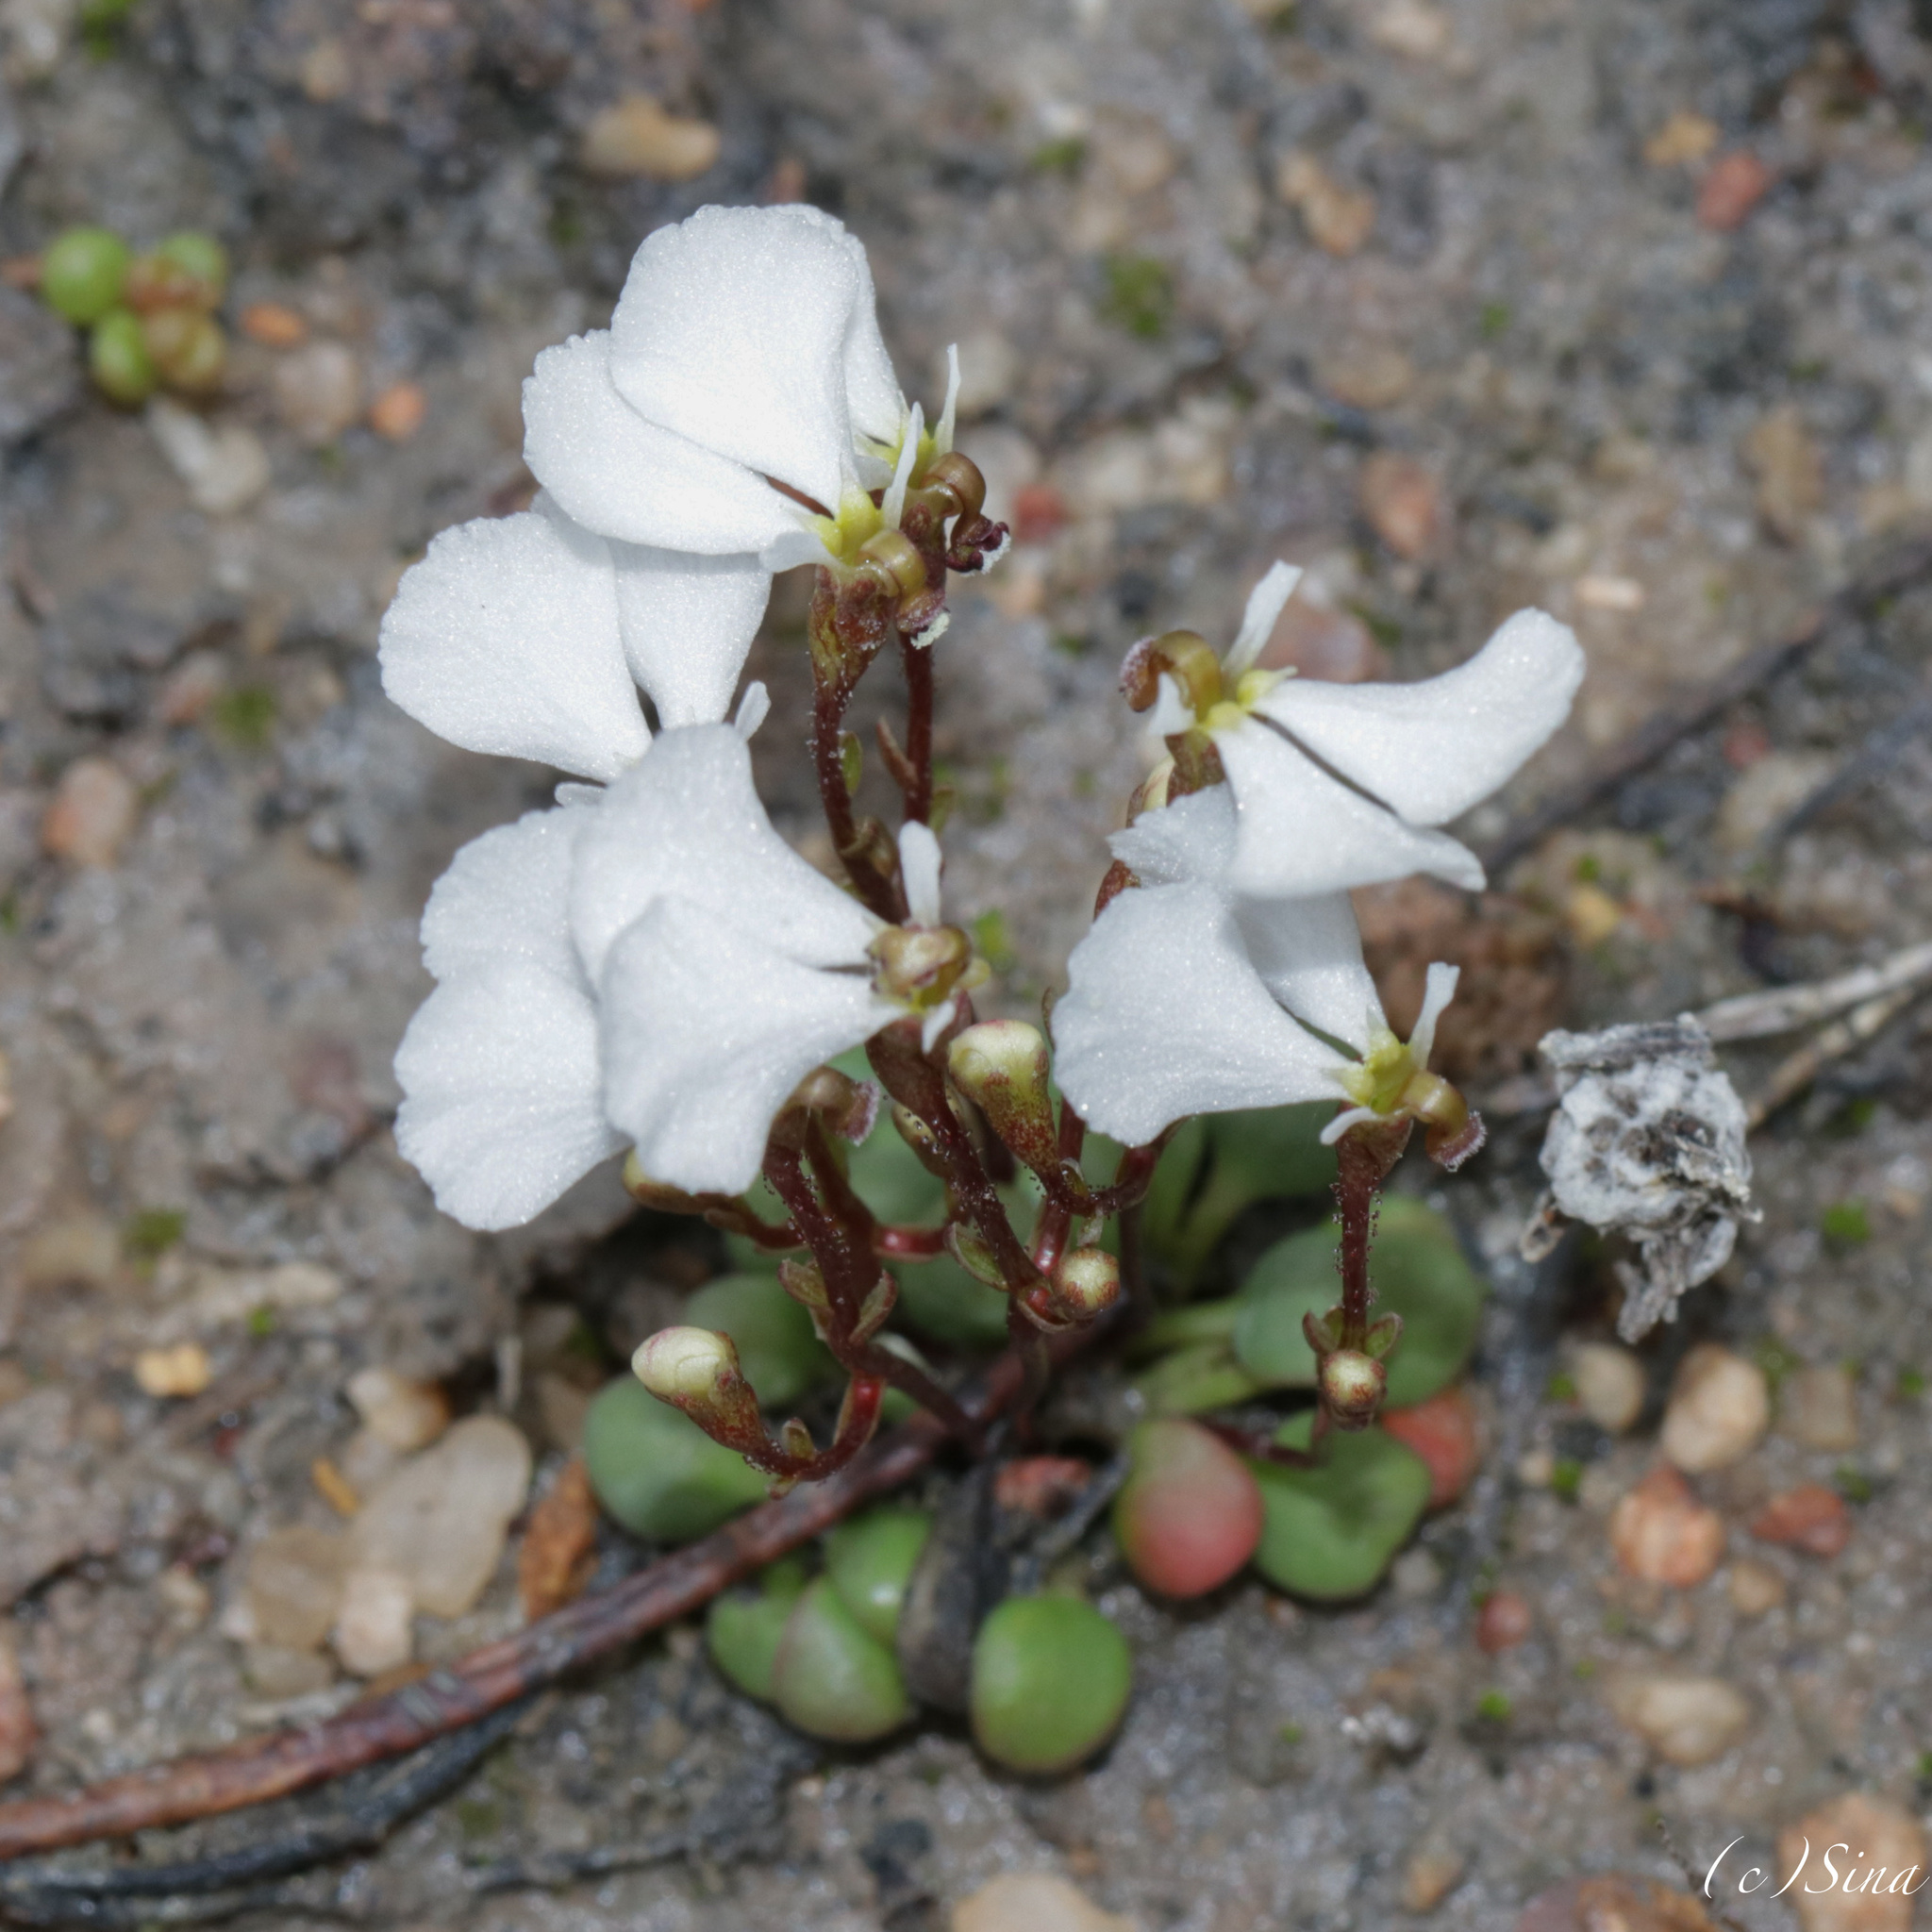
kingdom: Plantae
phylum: Tracheophyta
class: Magnoliopsida
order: Asterales
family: Stylidiaceae
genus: Stylidium
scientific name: Stylidium obtusatum
